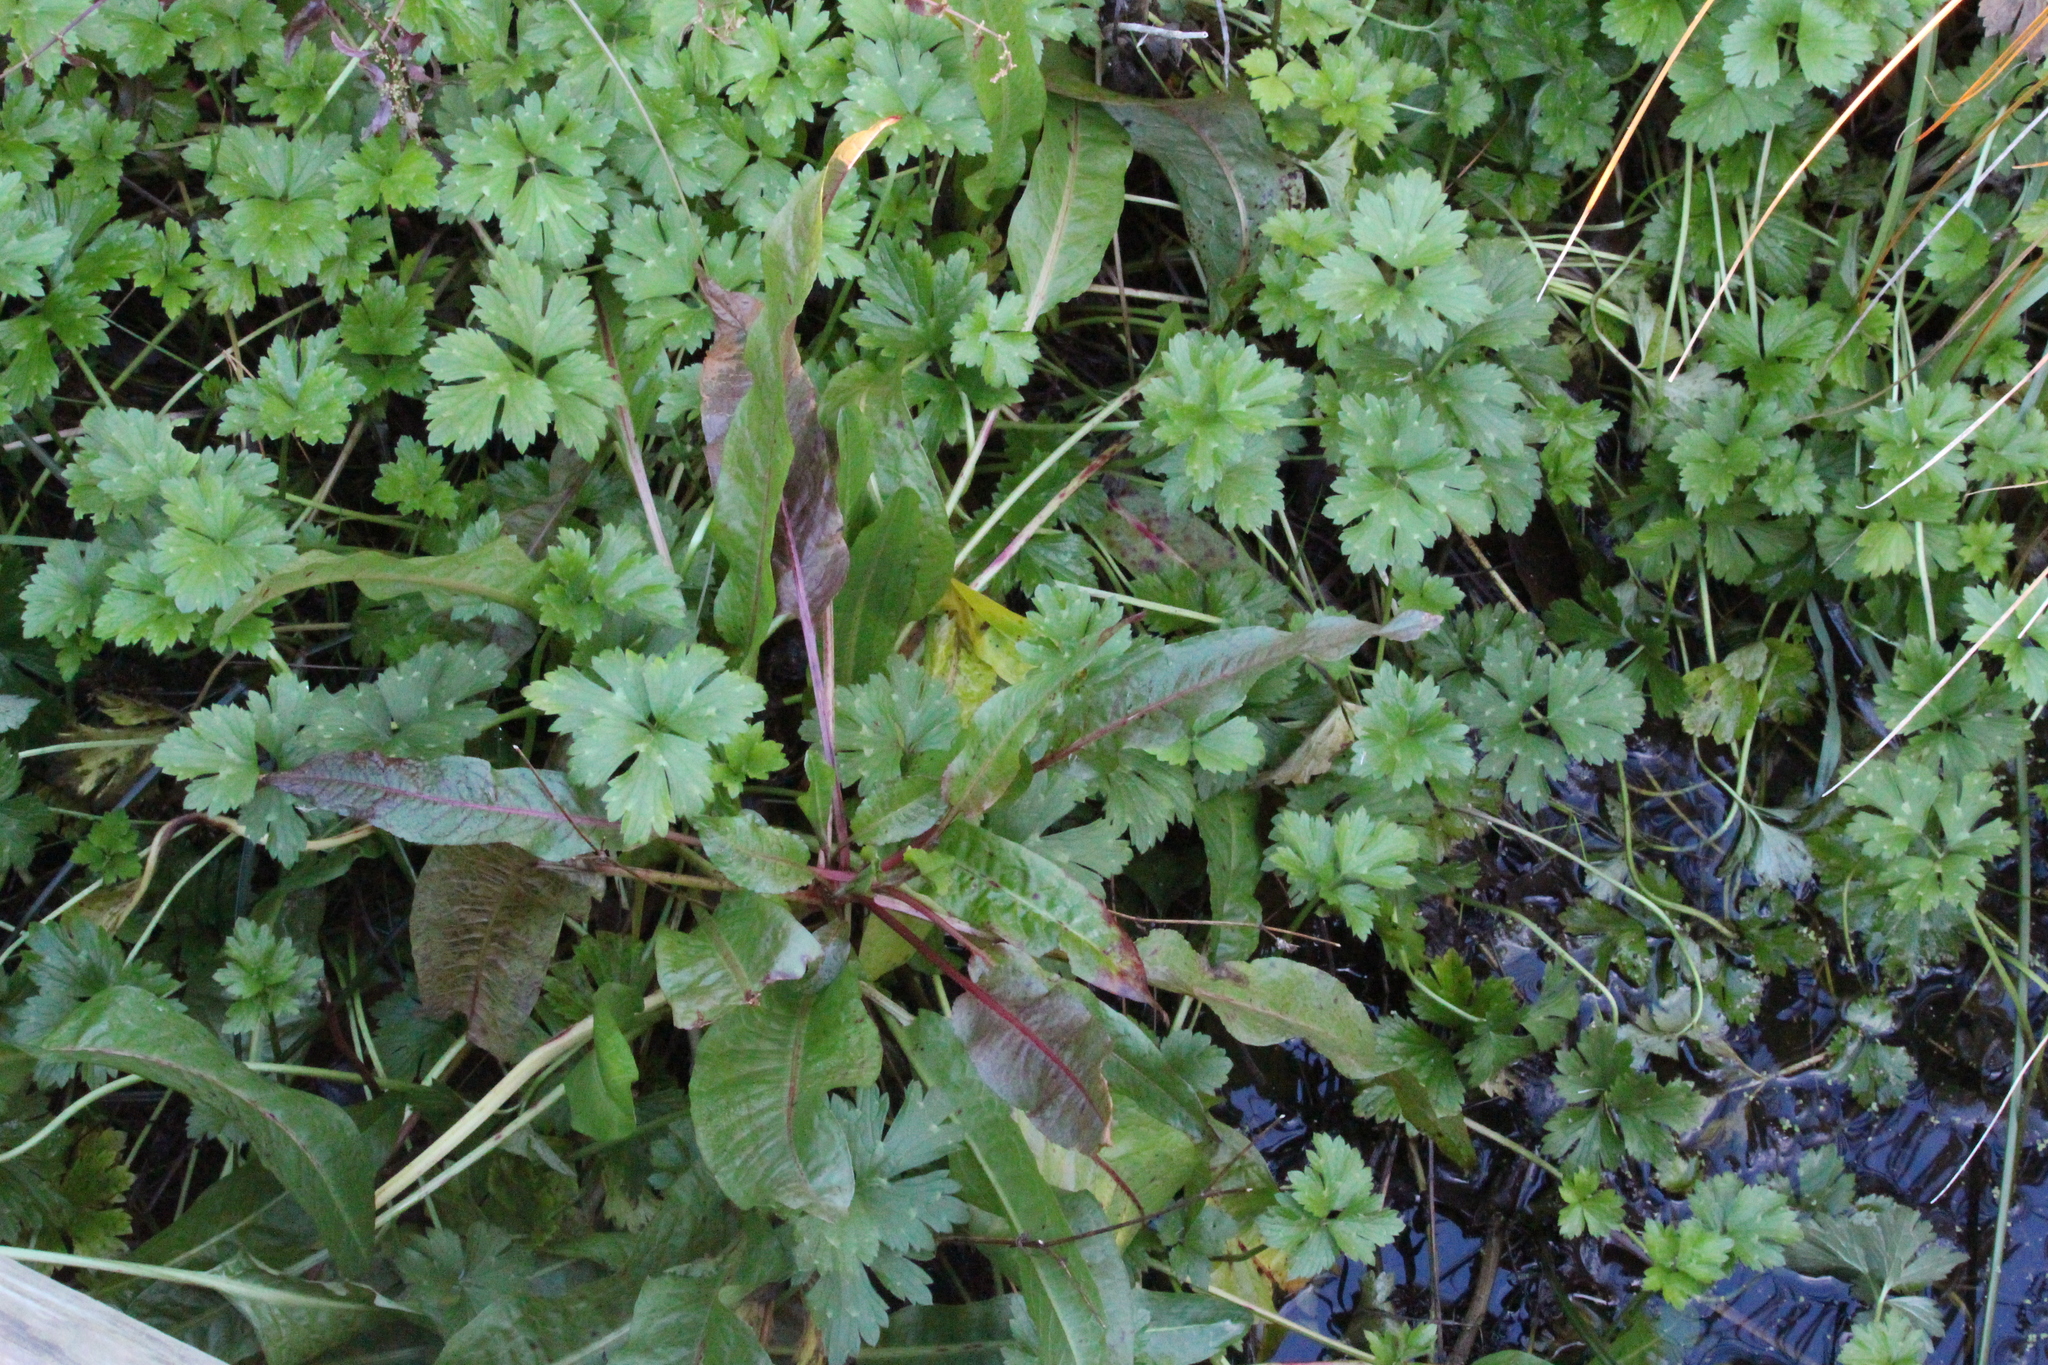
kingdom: Plantae
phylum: Tracheophyta
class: Magnoliopsida
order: Ranunculales
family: Ranunculaceae
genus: Ranunculus
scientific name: Ranunculus repens
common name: Creeping buttercup
